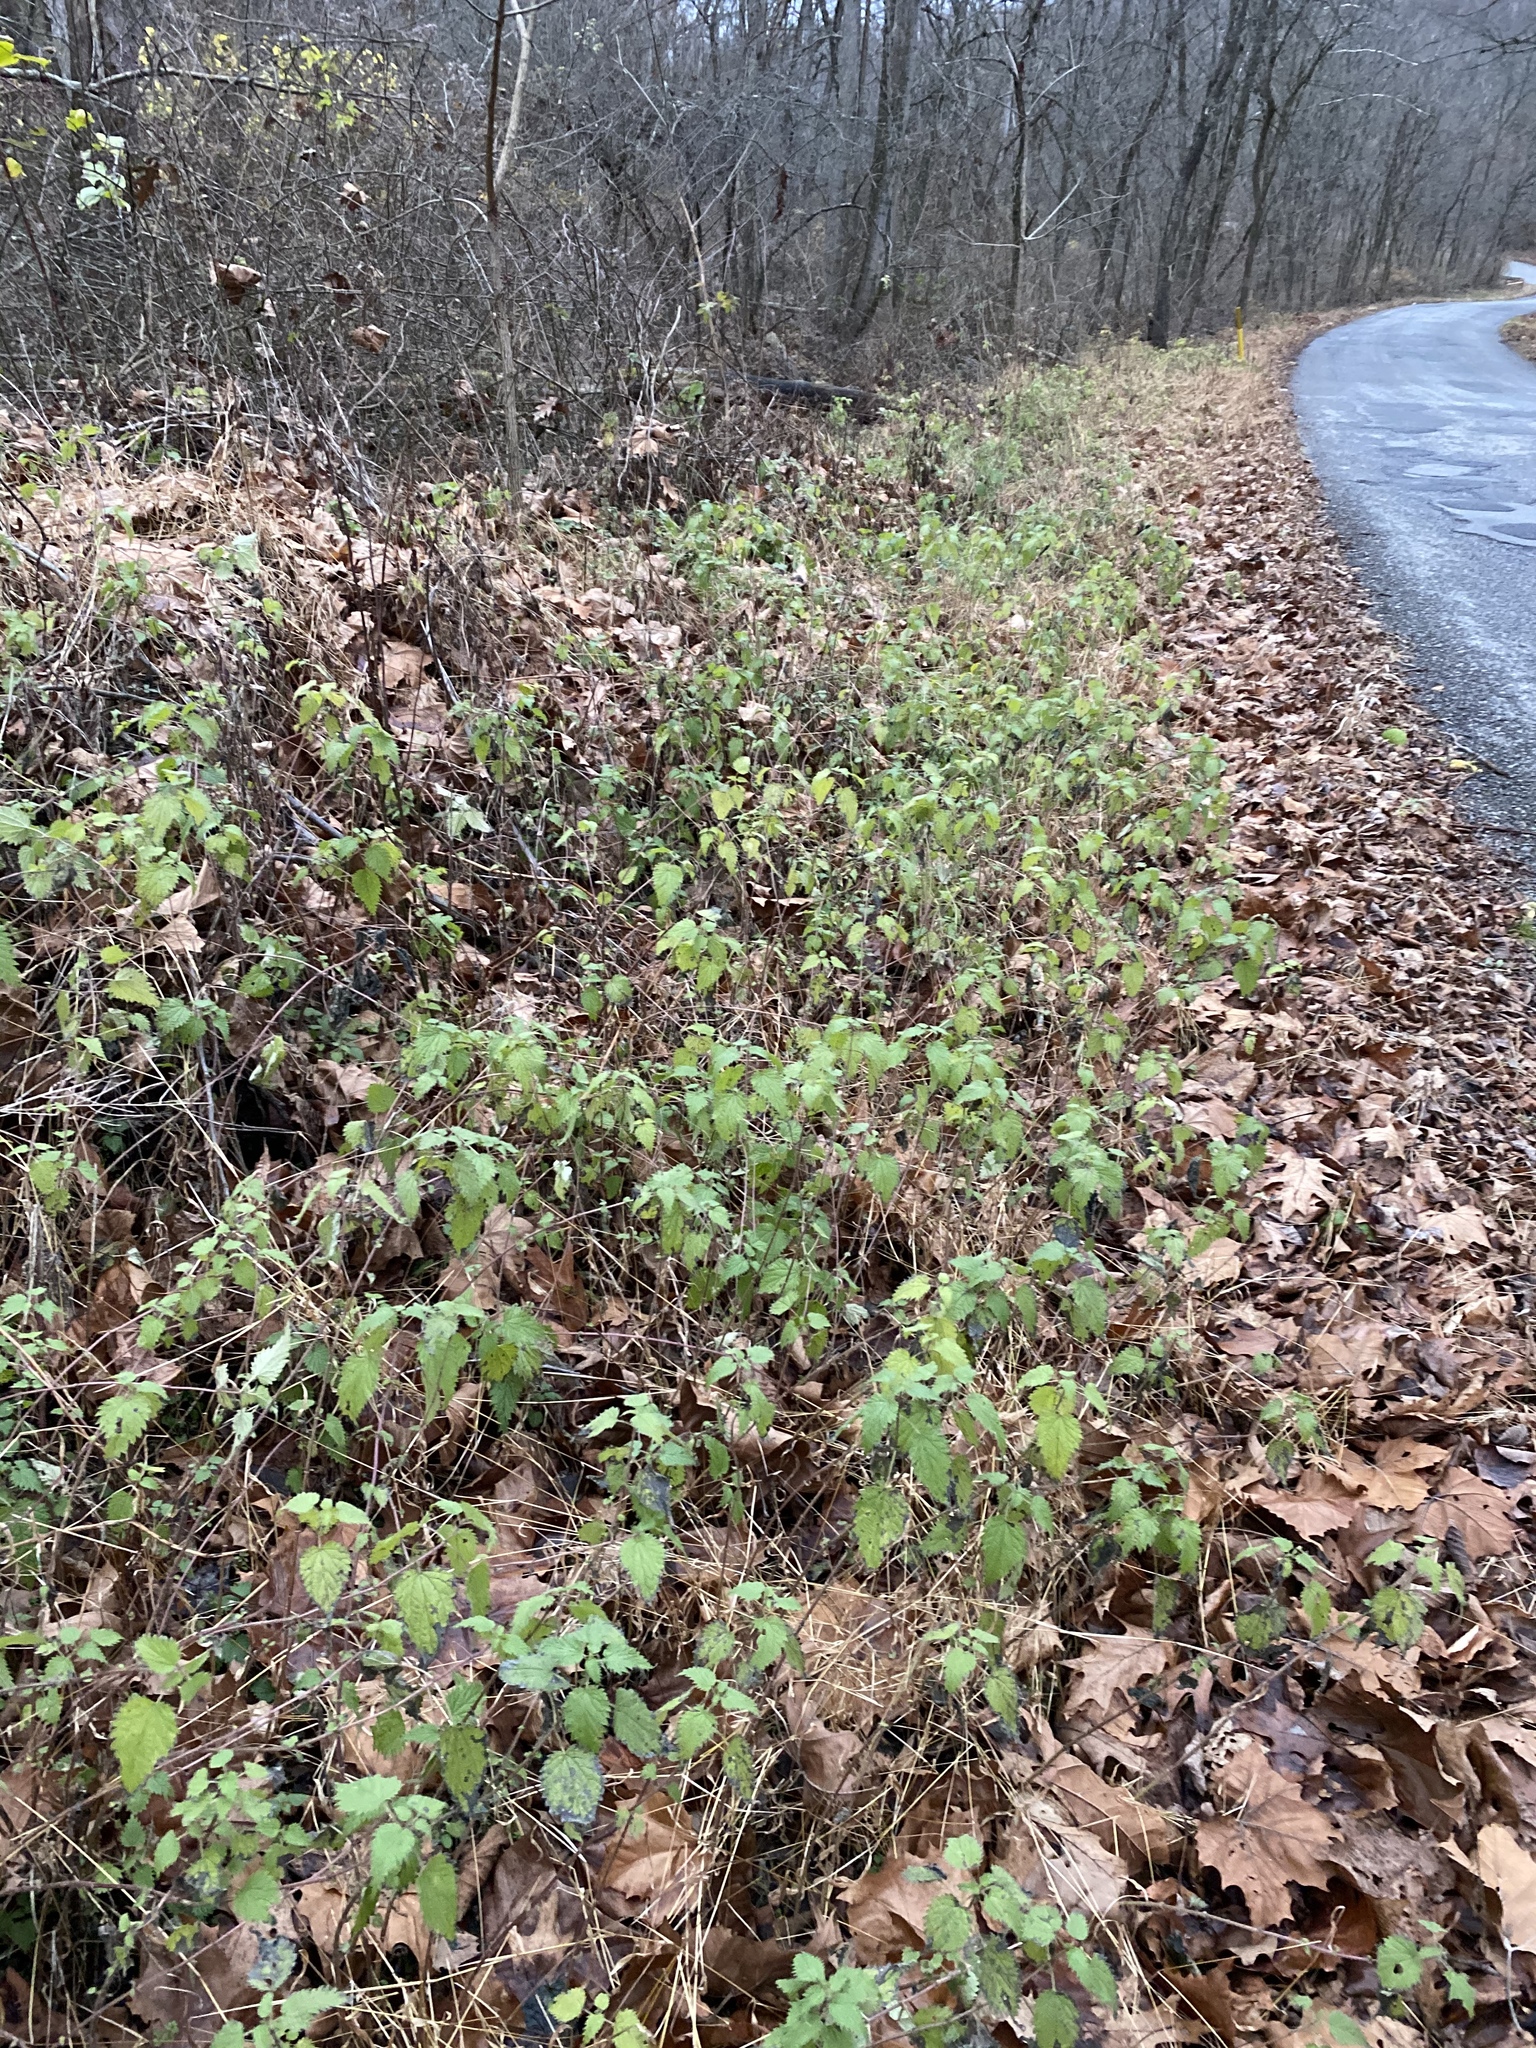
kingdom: Plantae
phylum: Tracheophyta
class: Magnoliopsida
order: Rosales
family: Urticaceae
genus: Urtica
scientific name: Urtica dioica
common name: Common nettle
